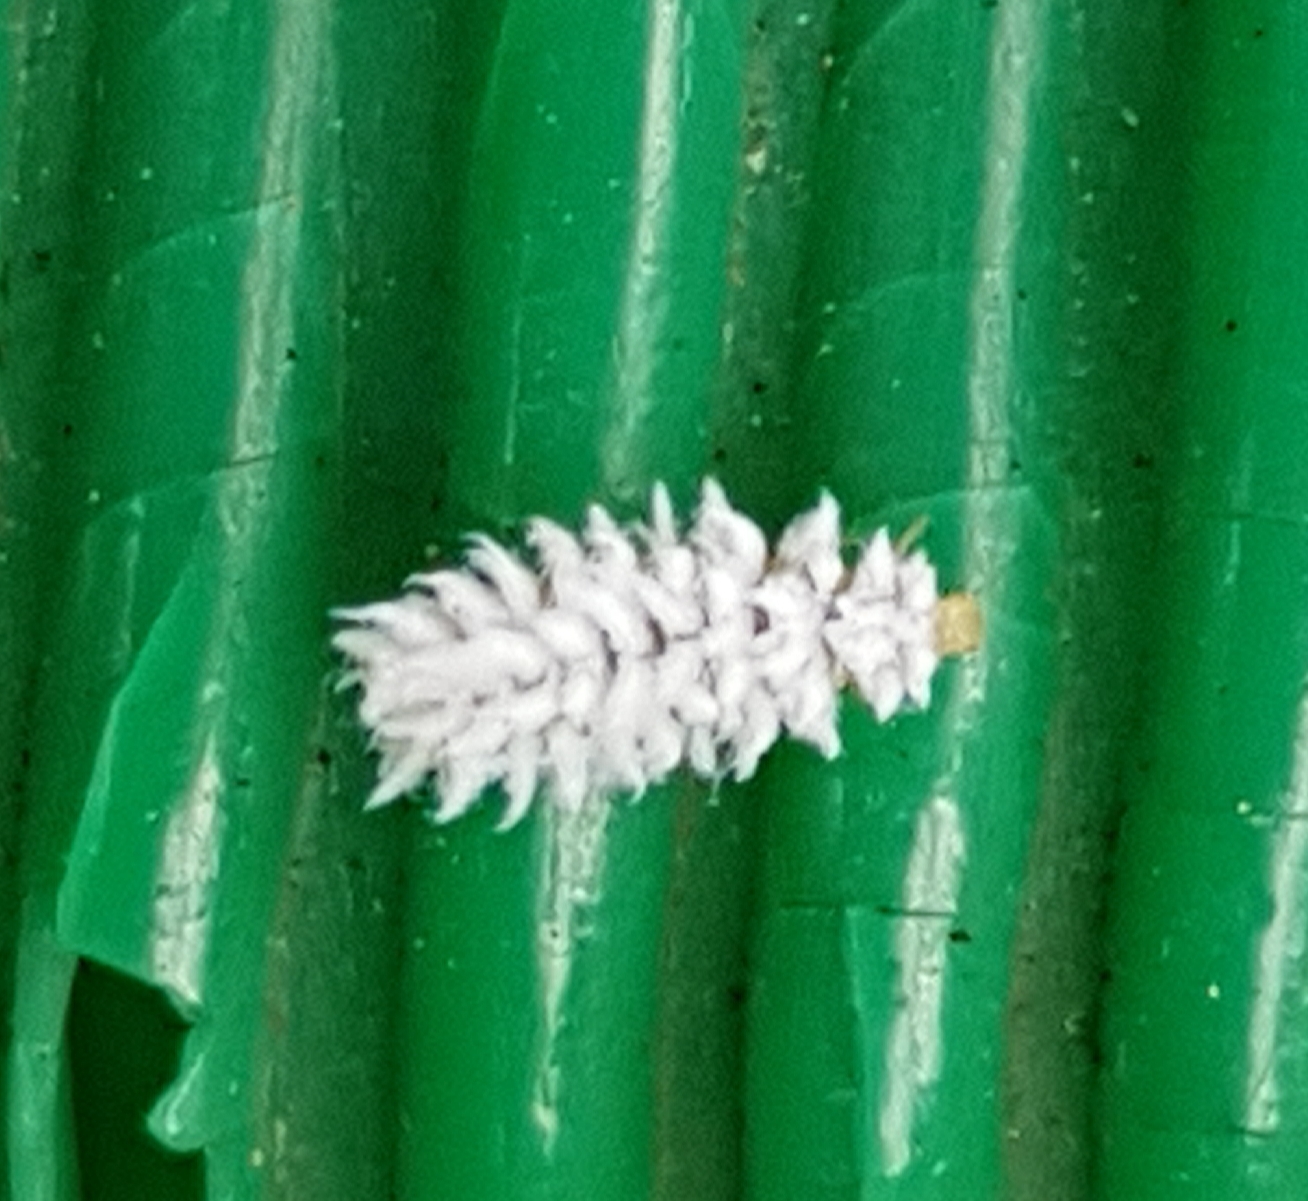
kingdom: Animalia
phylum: Arthropoda
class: Insecta
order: Coleoptera
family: Coccinellidae
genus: Cryptolaemus
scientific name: Cryptolaemus montrouzieri
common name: Mealybug destroyer
